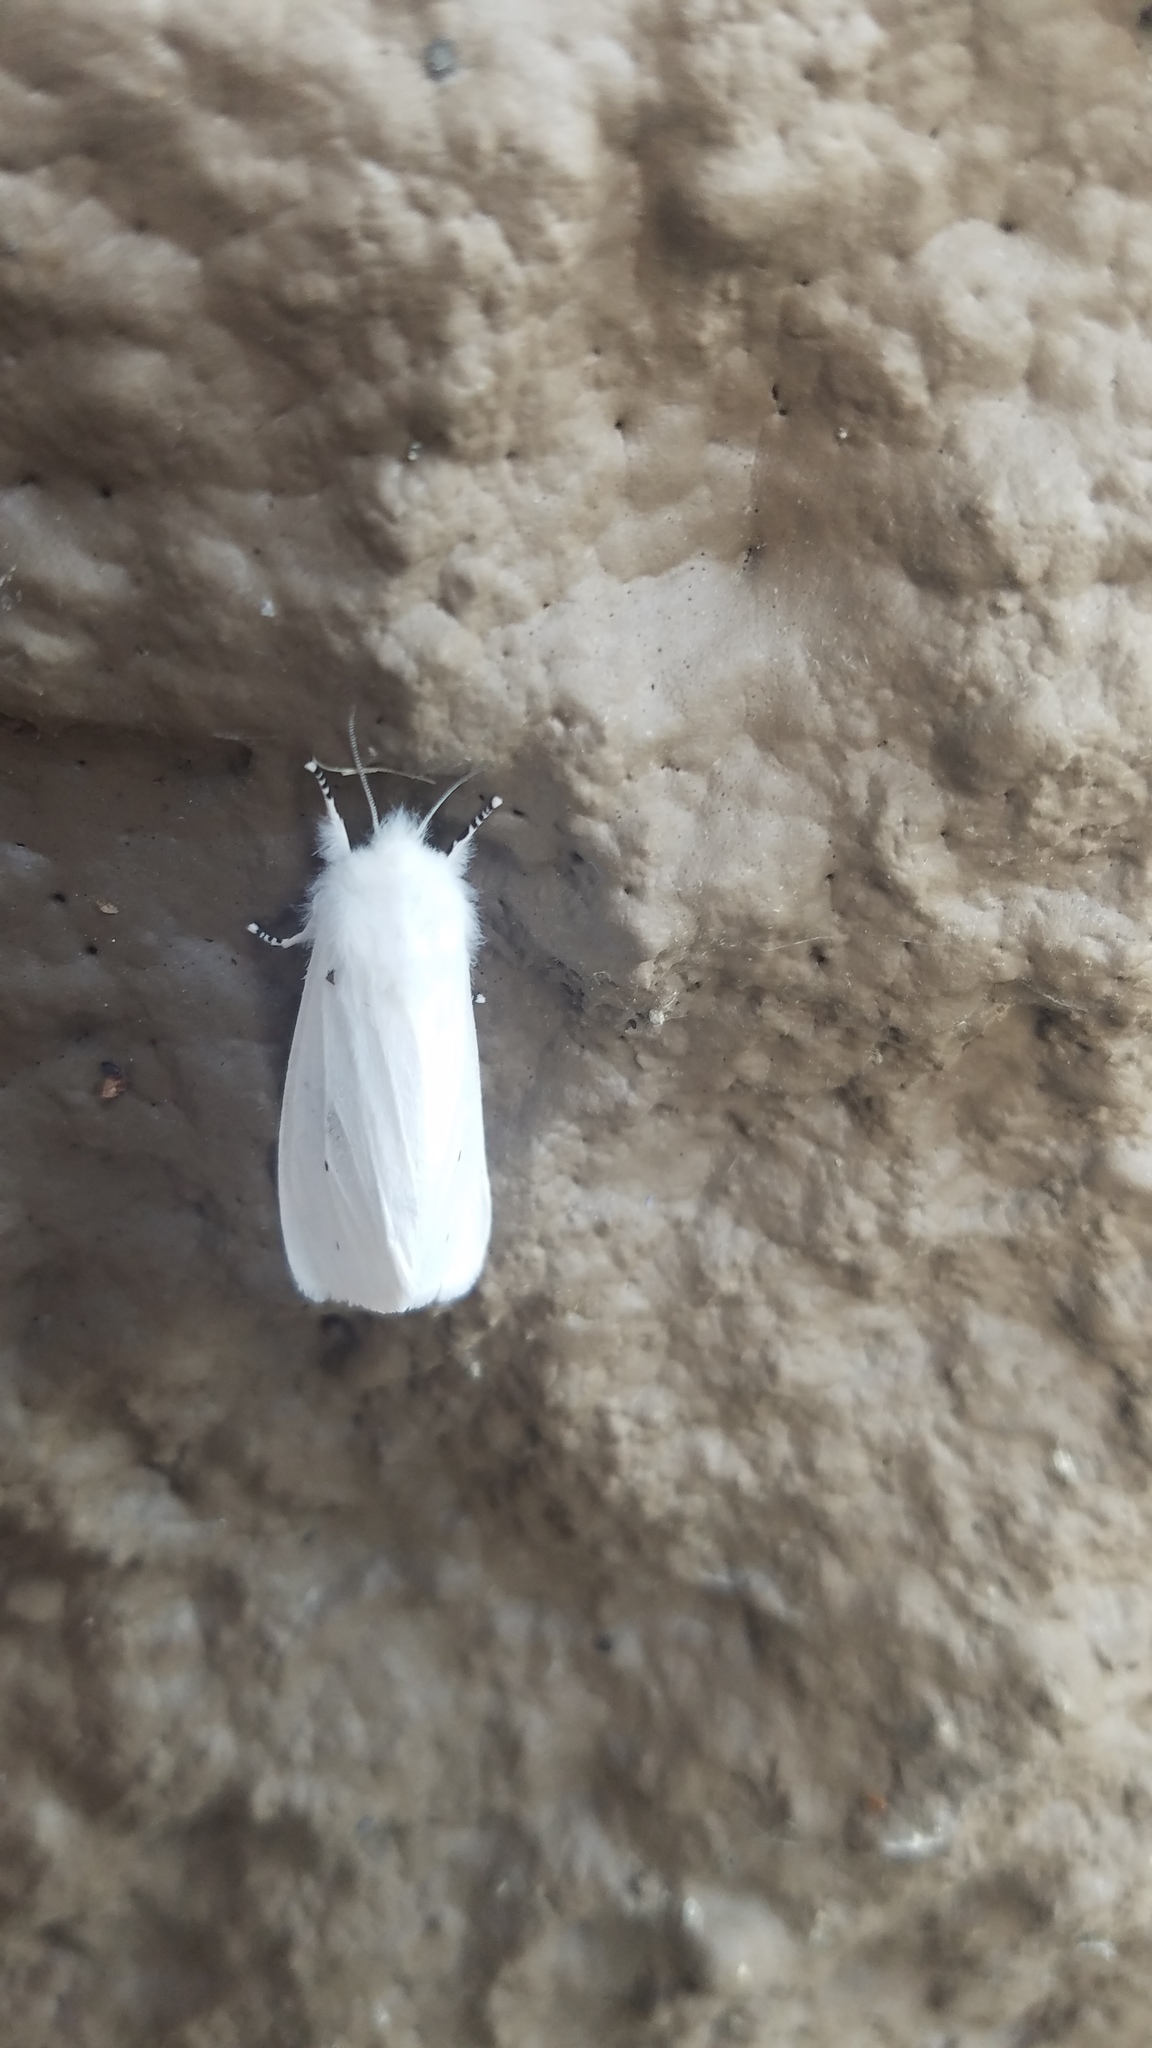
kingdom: Animalia
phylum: Arthropoda
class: Insecta
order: Lepidoptera
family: Erebidae
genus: Spilosoma
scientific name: Spilosoma virginica
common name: Virginia tiger moth
